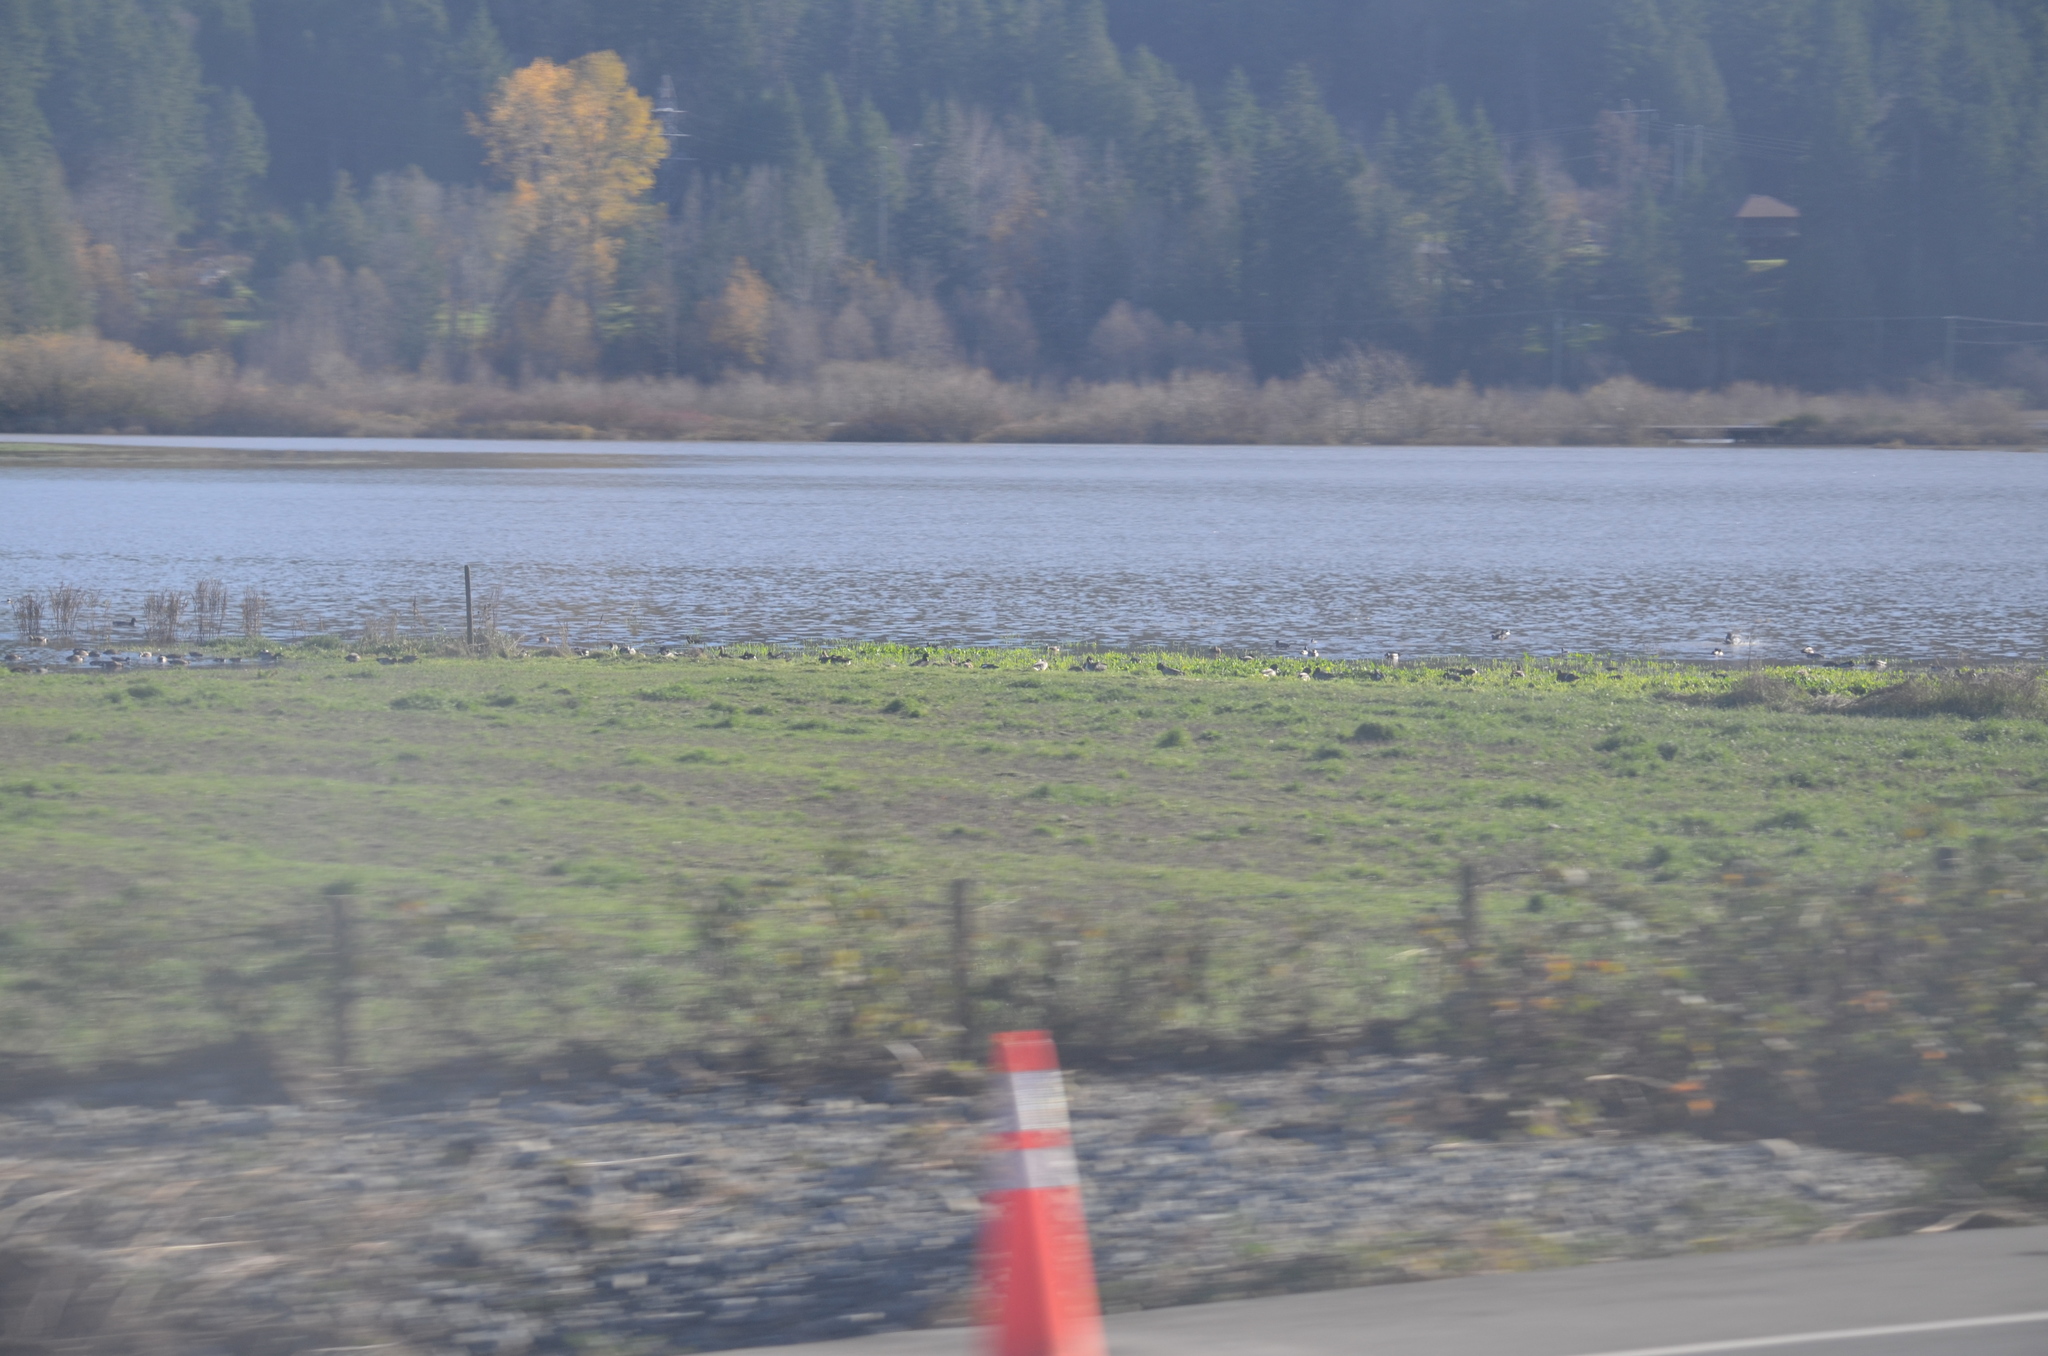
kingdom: Animalia
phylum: Chordata
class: Aves
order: Anseriformes
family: Anatidae
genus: Anas
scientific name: Anas platyrhynchos
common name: Mallard
